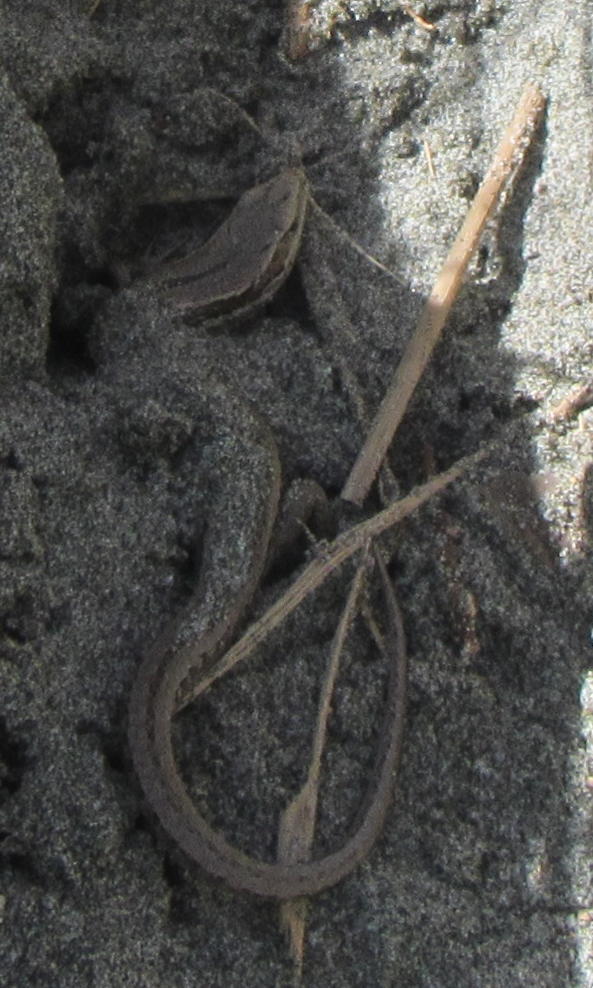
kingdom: Animalia
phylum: Chordata
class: Squamata
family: Scincidae
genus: Oligosoma
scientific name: Oligosoma polychroma
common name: Common new zealand skink
